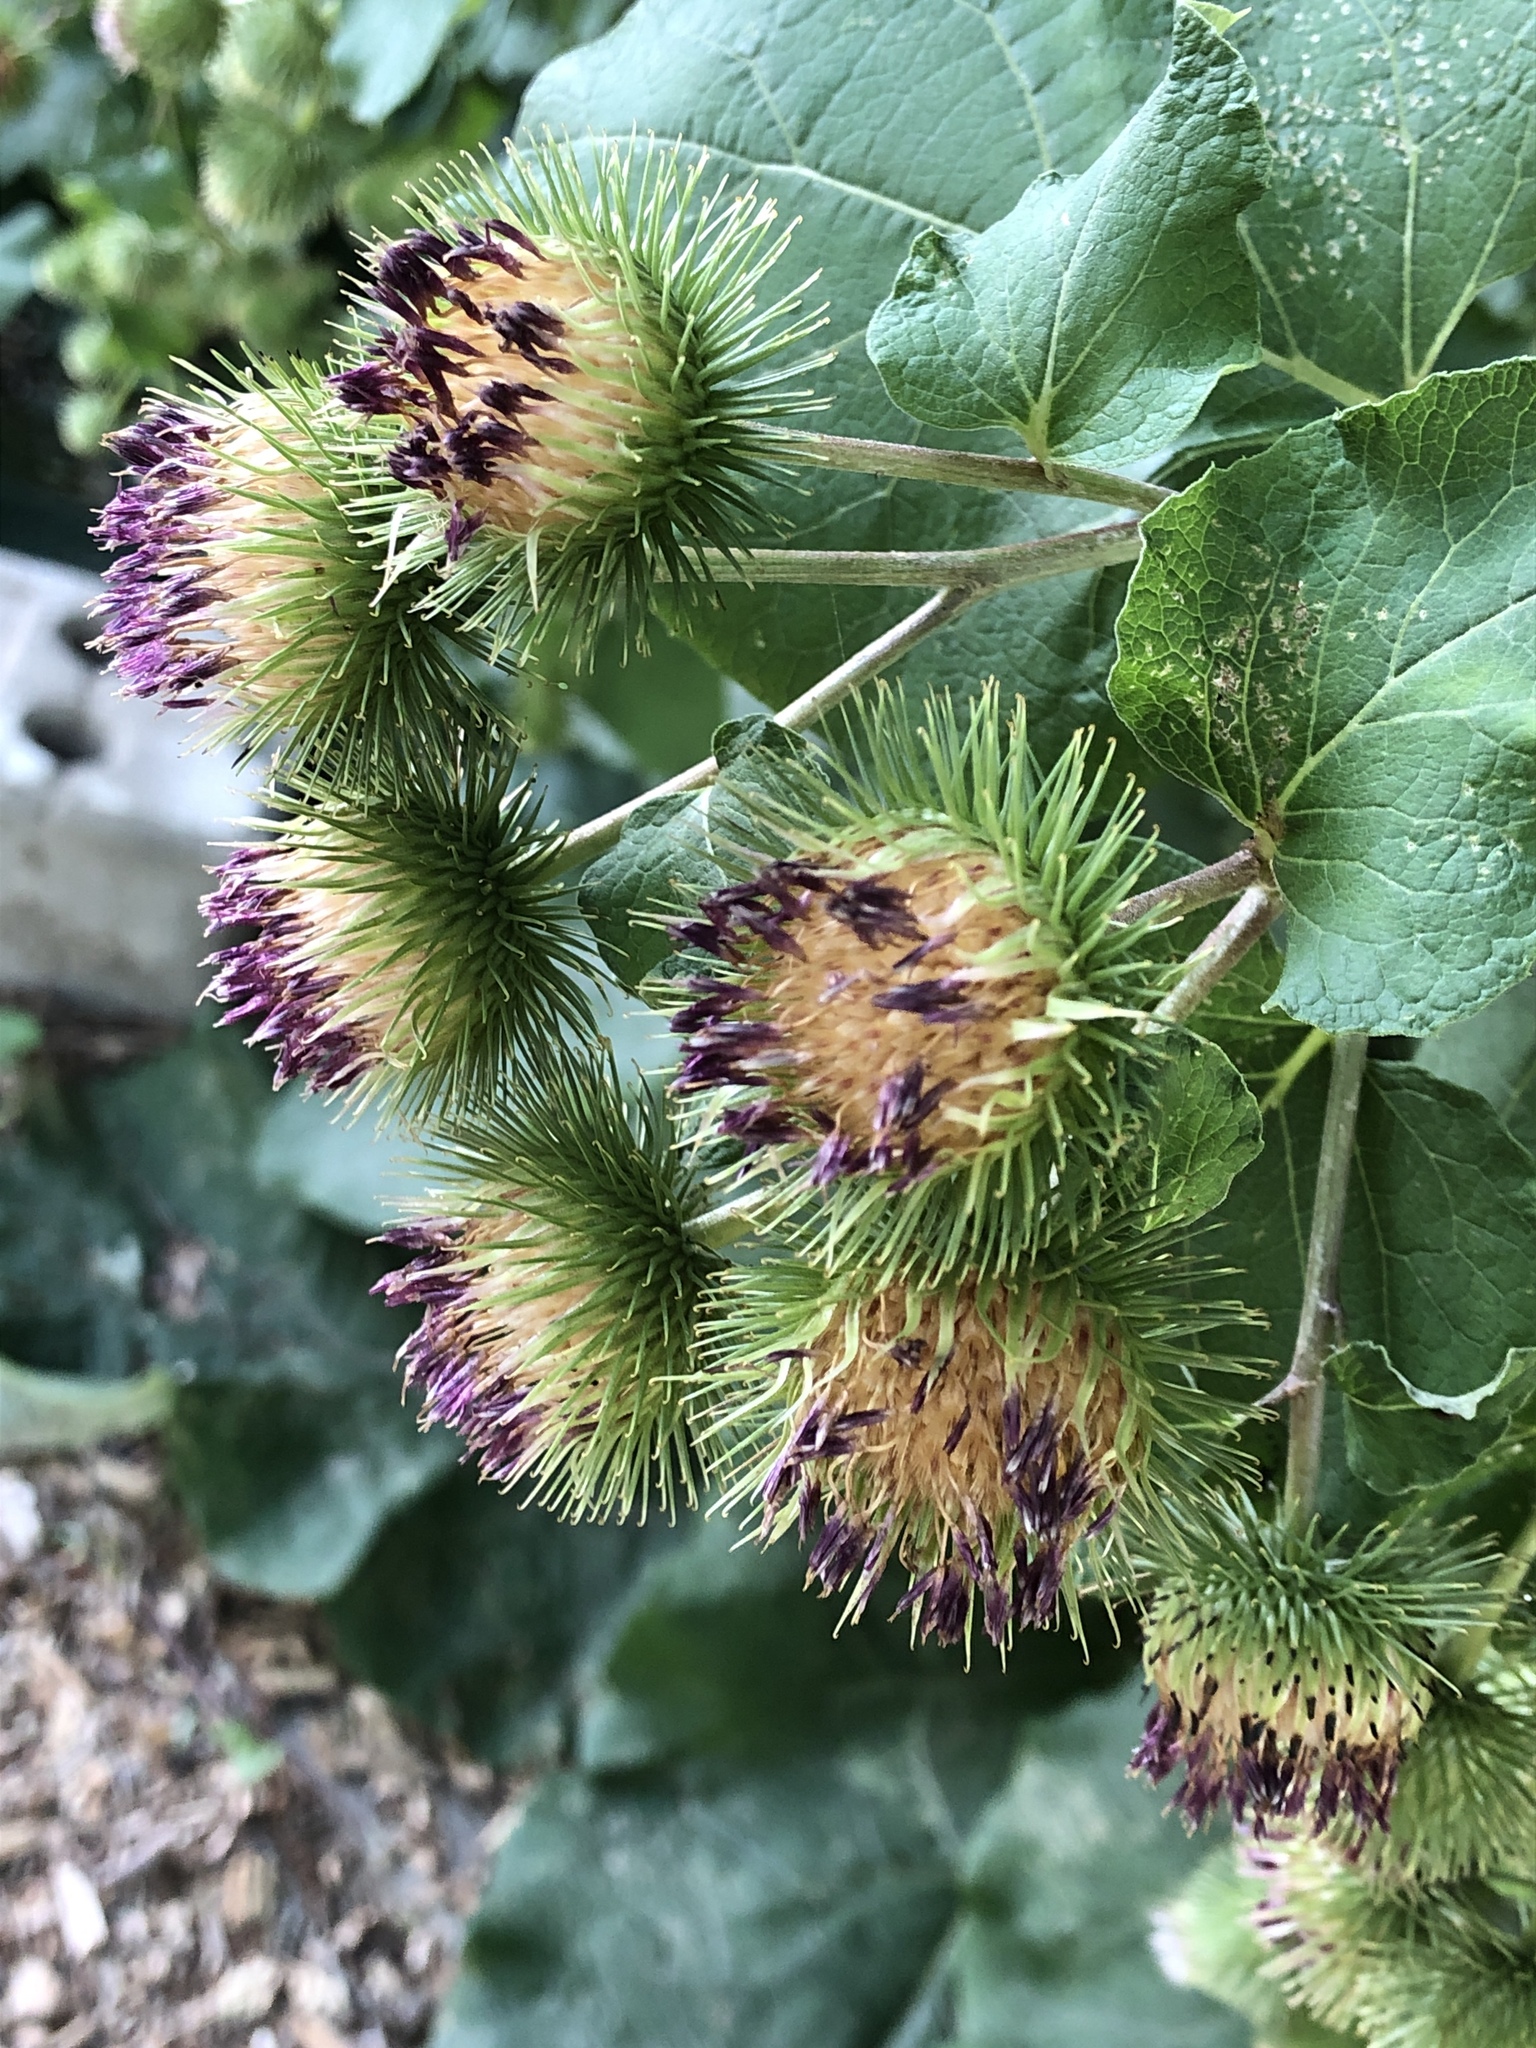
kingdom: Plantae
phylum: Tracheophyta
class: Magnoliopsida
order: Asterales
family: Asteraceae
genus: Arctium
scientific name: Arctium lappa
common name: Greater burdock
